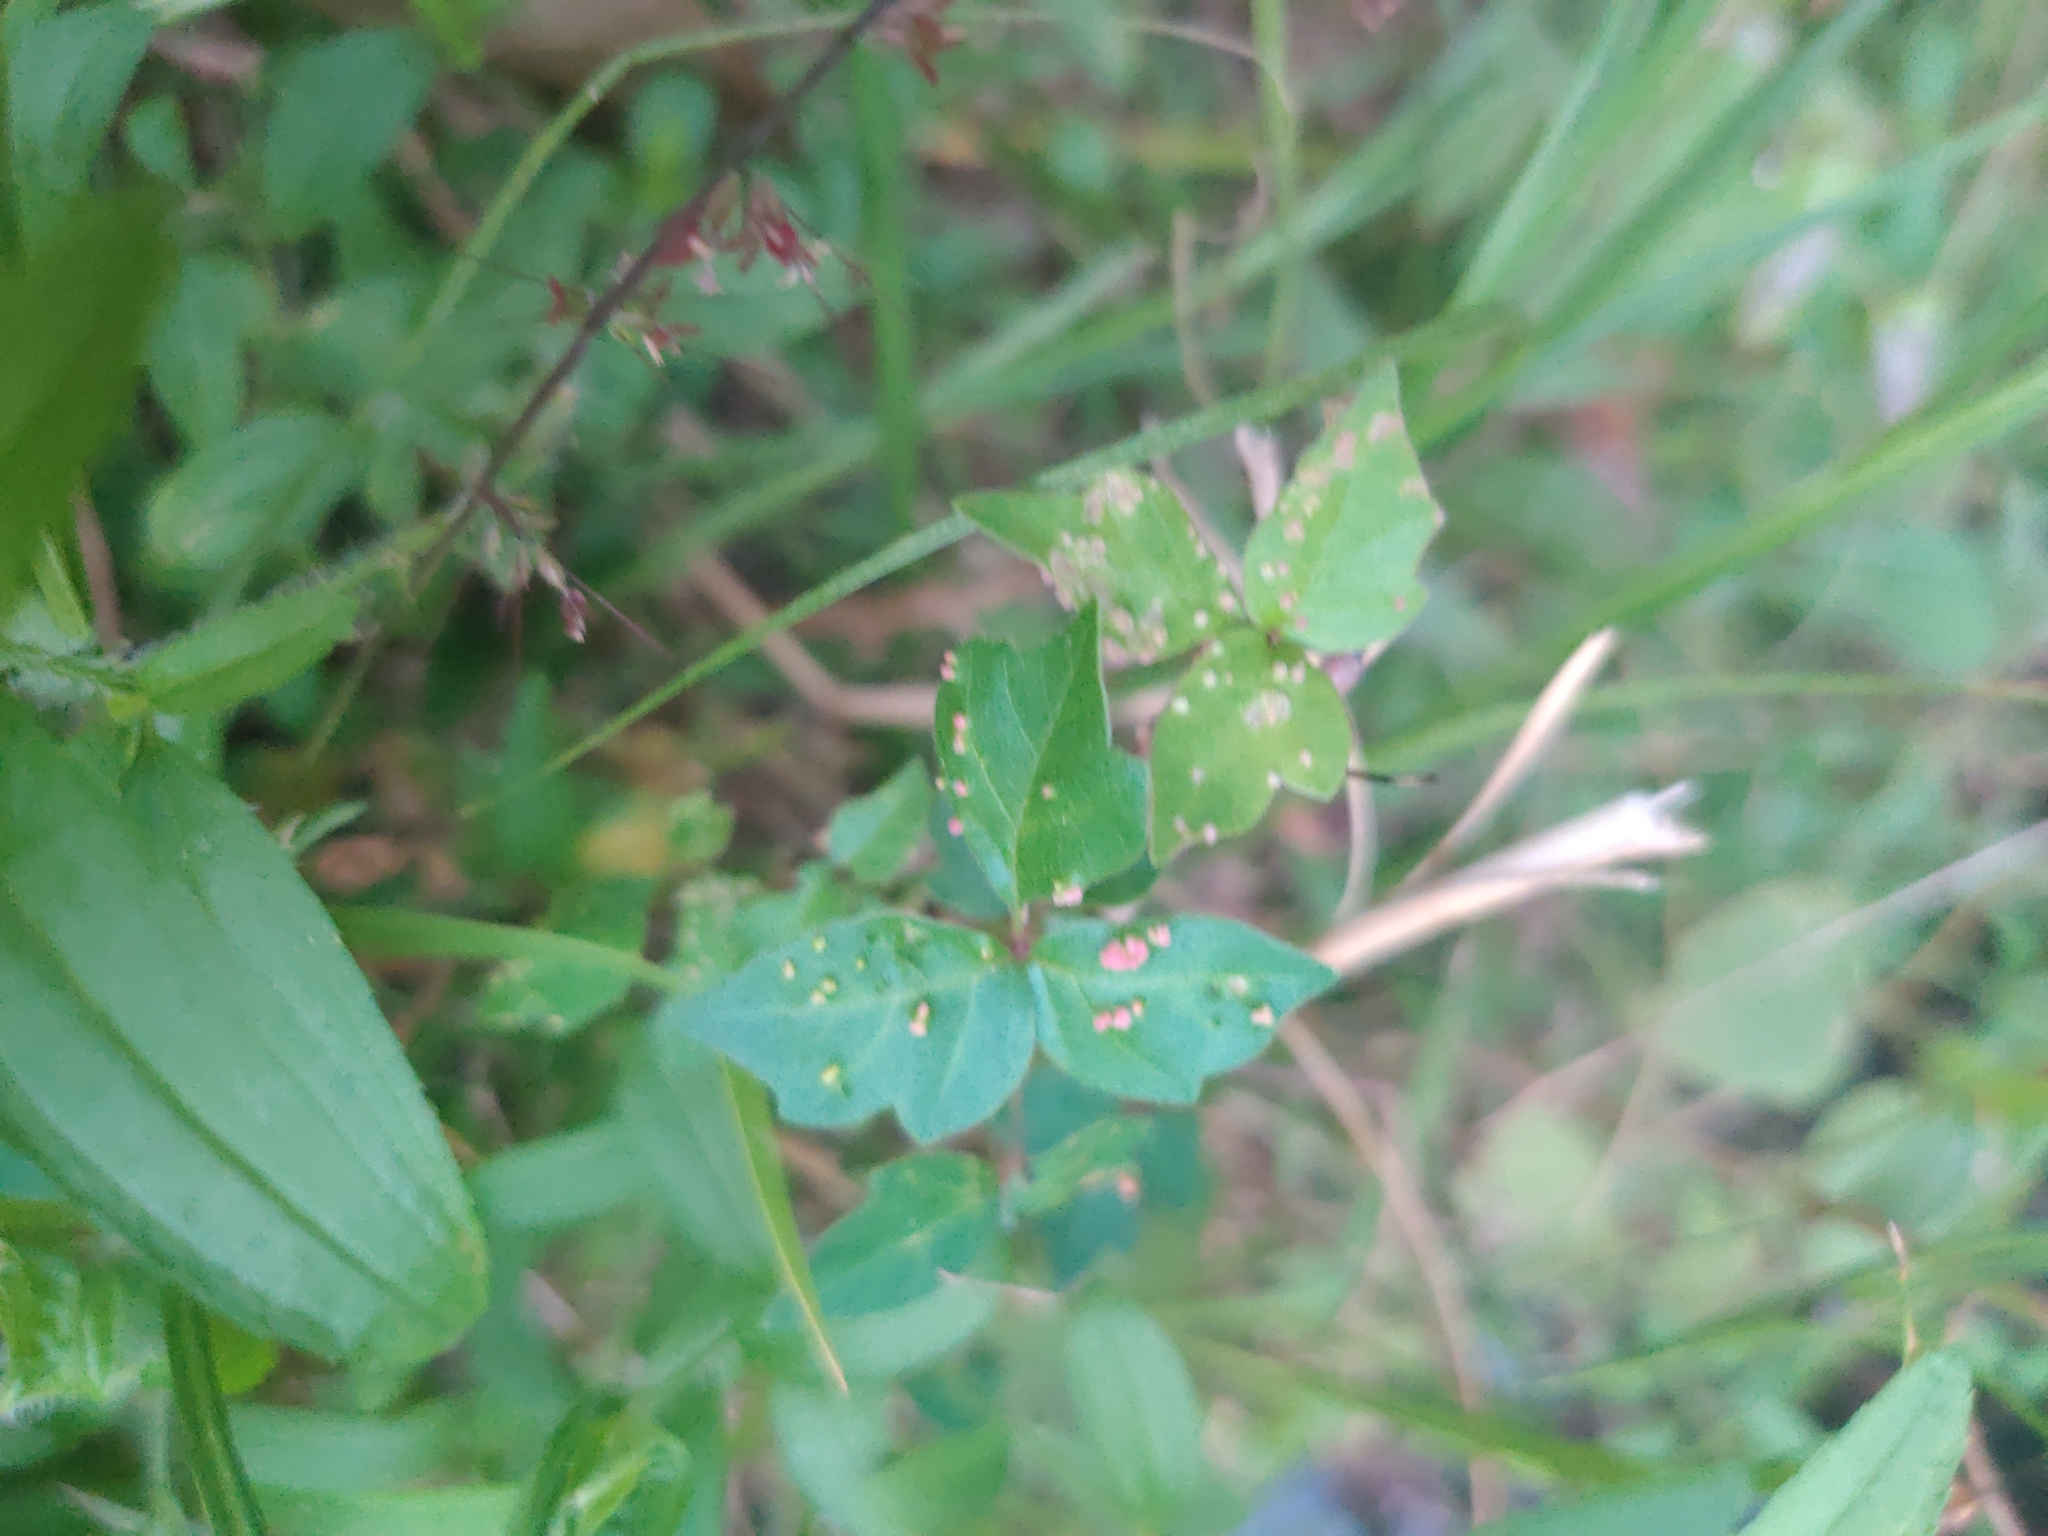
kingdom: Animalia
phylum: Arthropoda
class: Arachnida
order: Trombidiformes
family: Eriophyidae
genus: Aculops
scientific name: Aculops
